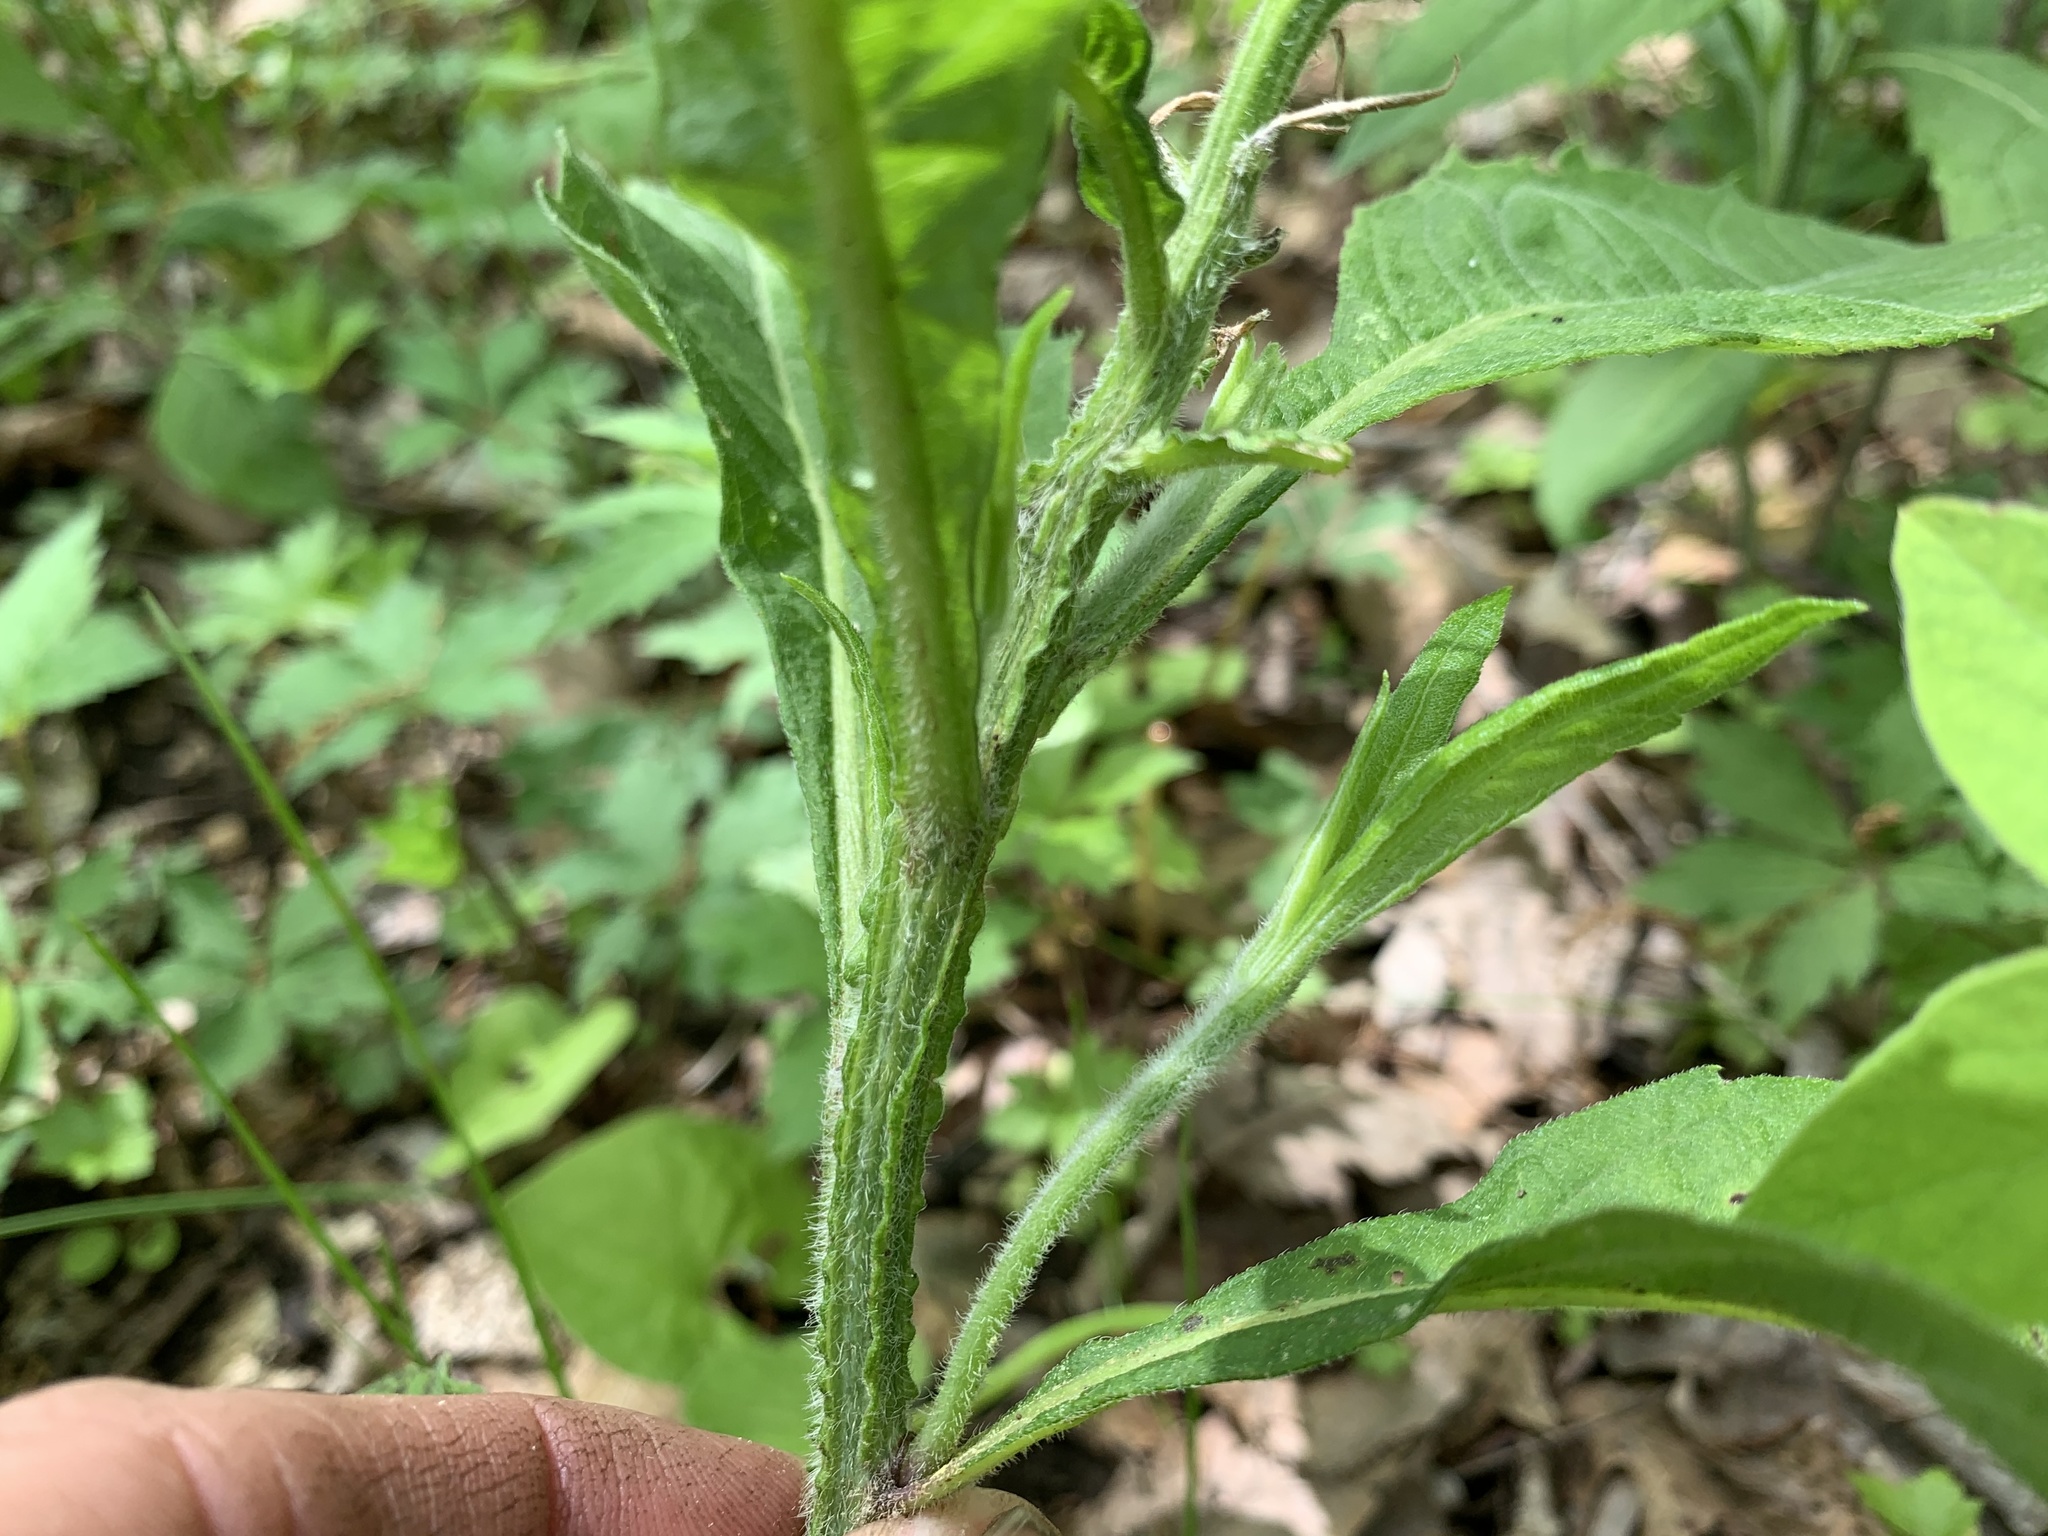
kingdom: Plantae
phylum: Tracheophyta
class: Magnoliopsida
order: Asterales
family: Asteraceae
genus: Verbesina
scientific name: Verbesina alternifolia
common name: Wingstem
